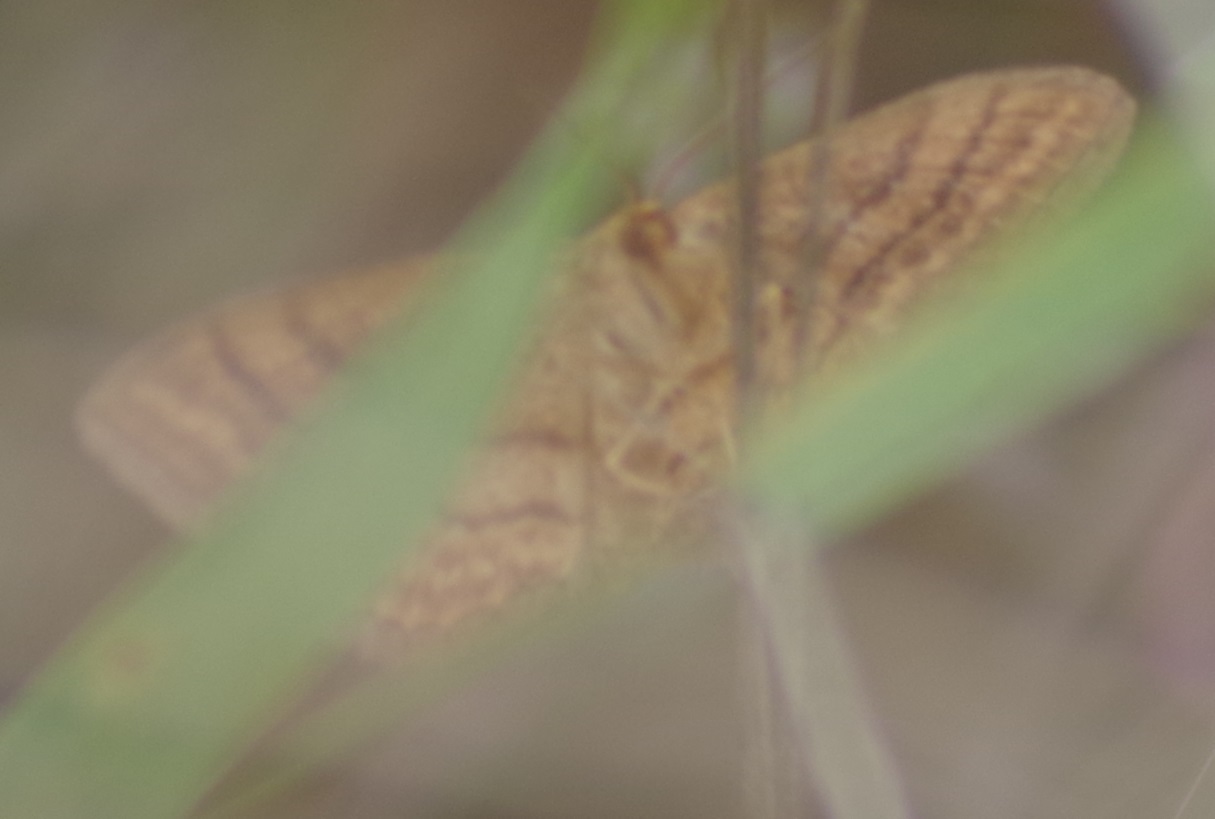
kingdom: Animalia
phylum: Arthropoda
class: Insecta
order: Lepidoptera
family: Geometridae
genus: Idaea
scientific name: Idaea ochrata
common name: Bright wave
